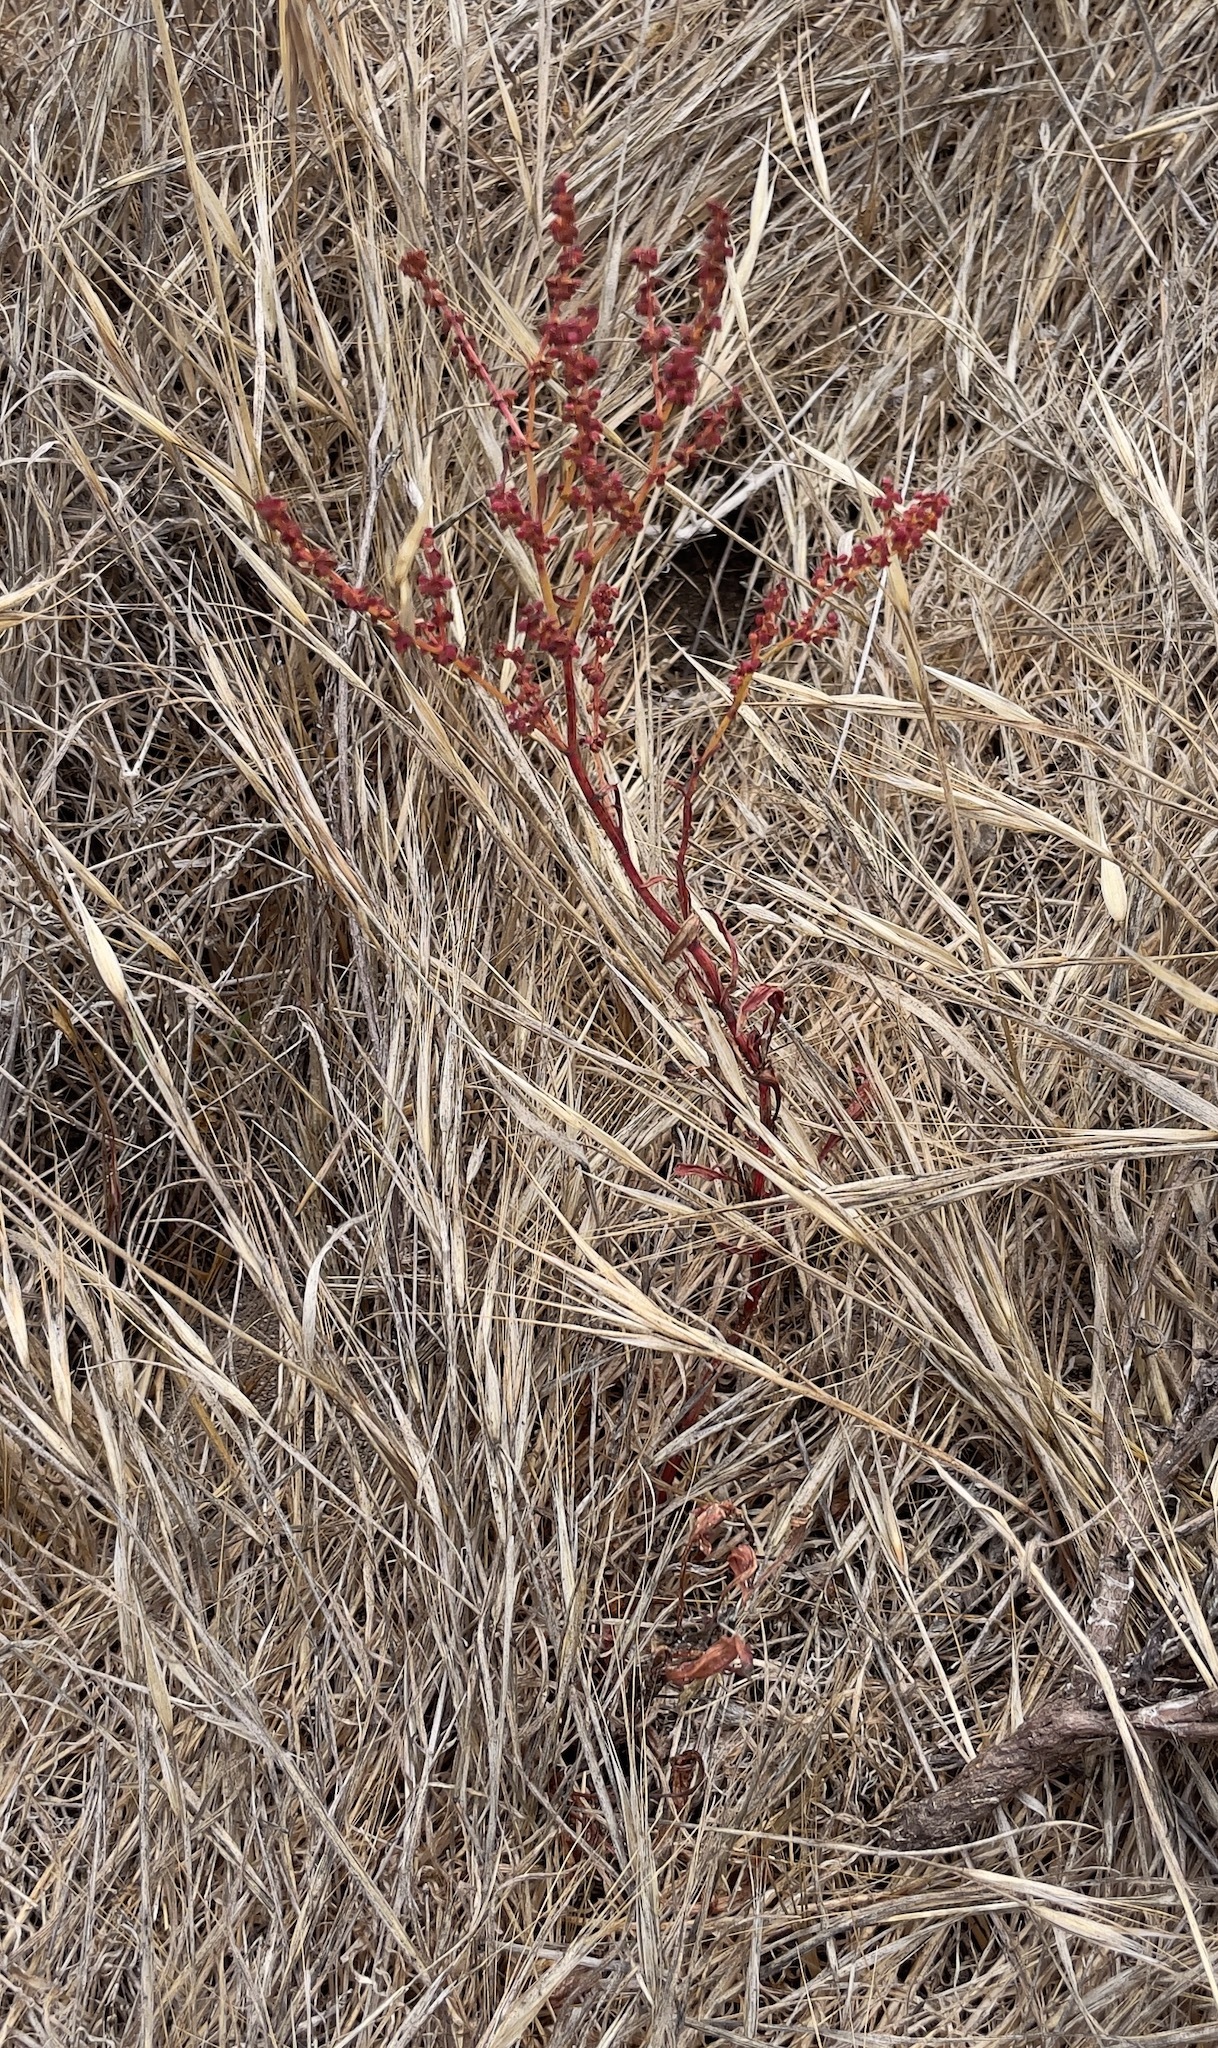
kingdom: Plantae
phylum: Tracheophyta
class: Magnoliopsida
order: Caryophyllales
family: Polygonaceae
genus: Rumex
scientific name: Rumex acetosella
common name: Common sheep sorrel
